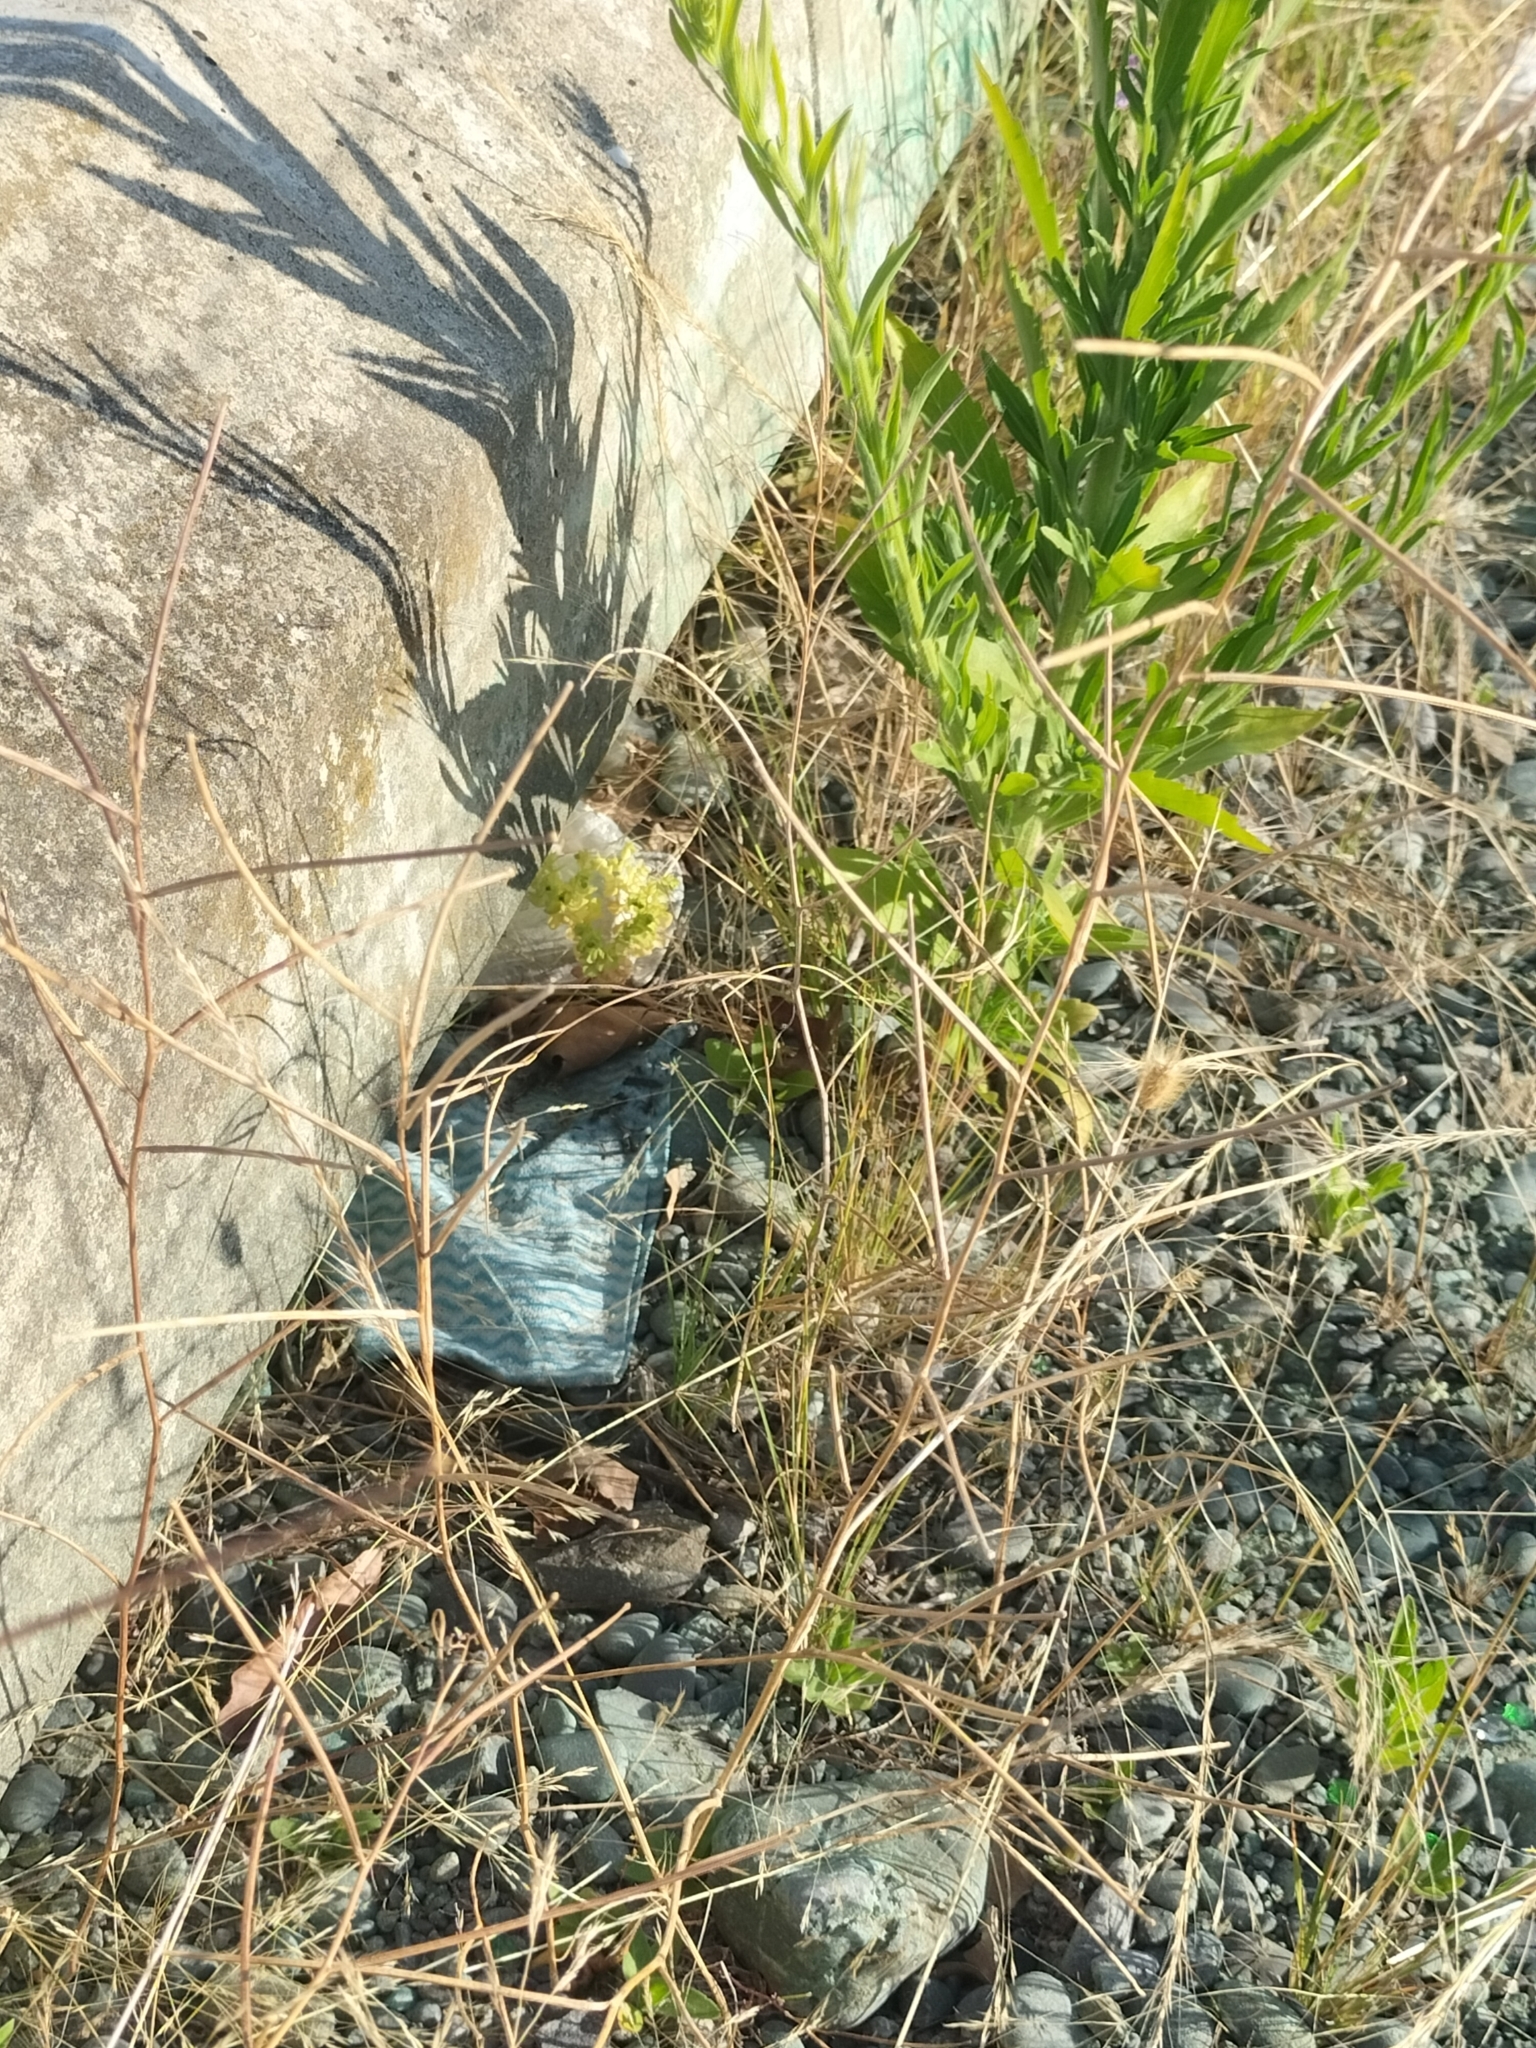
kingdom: Plantae
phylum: Tracheophyta
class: Magnoliopsida
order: Brassicales
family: Brassicaceae
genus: Sisymbrium
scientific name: Sisymbrium orientale
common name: Eastern rocket
